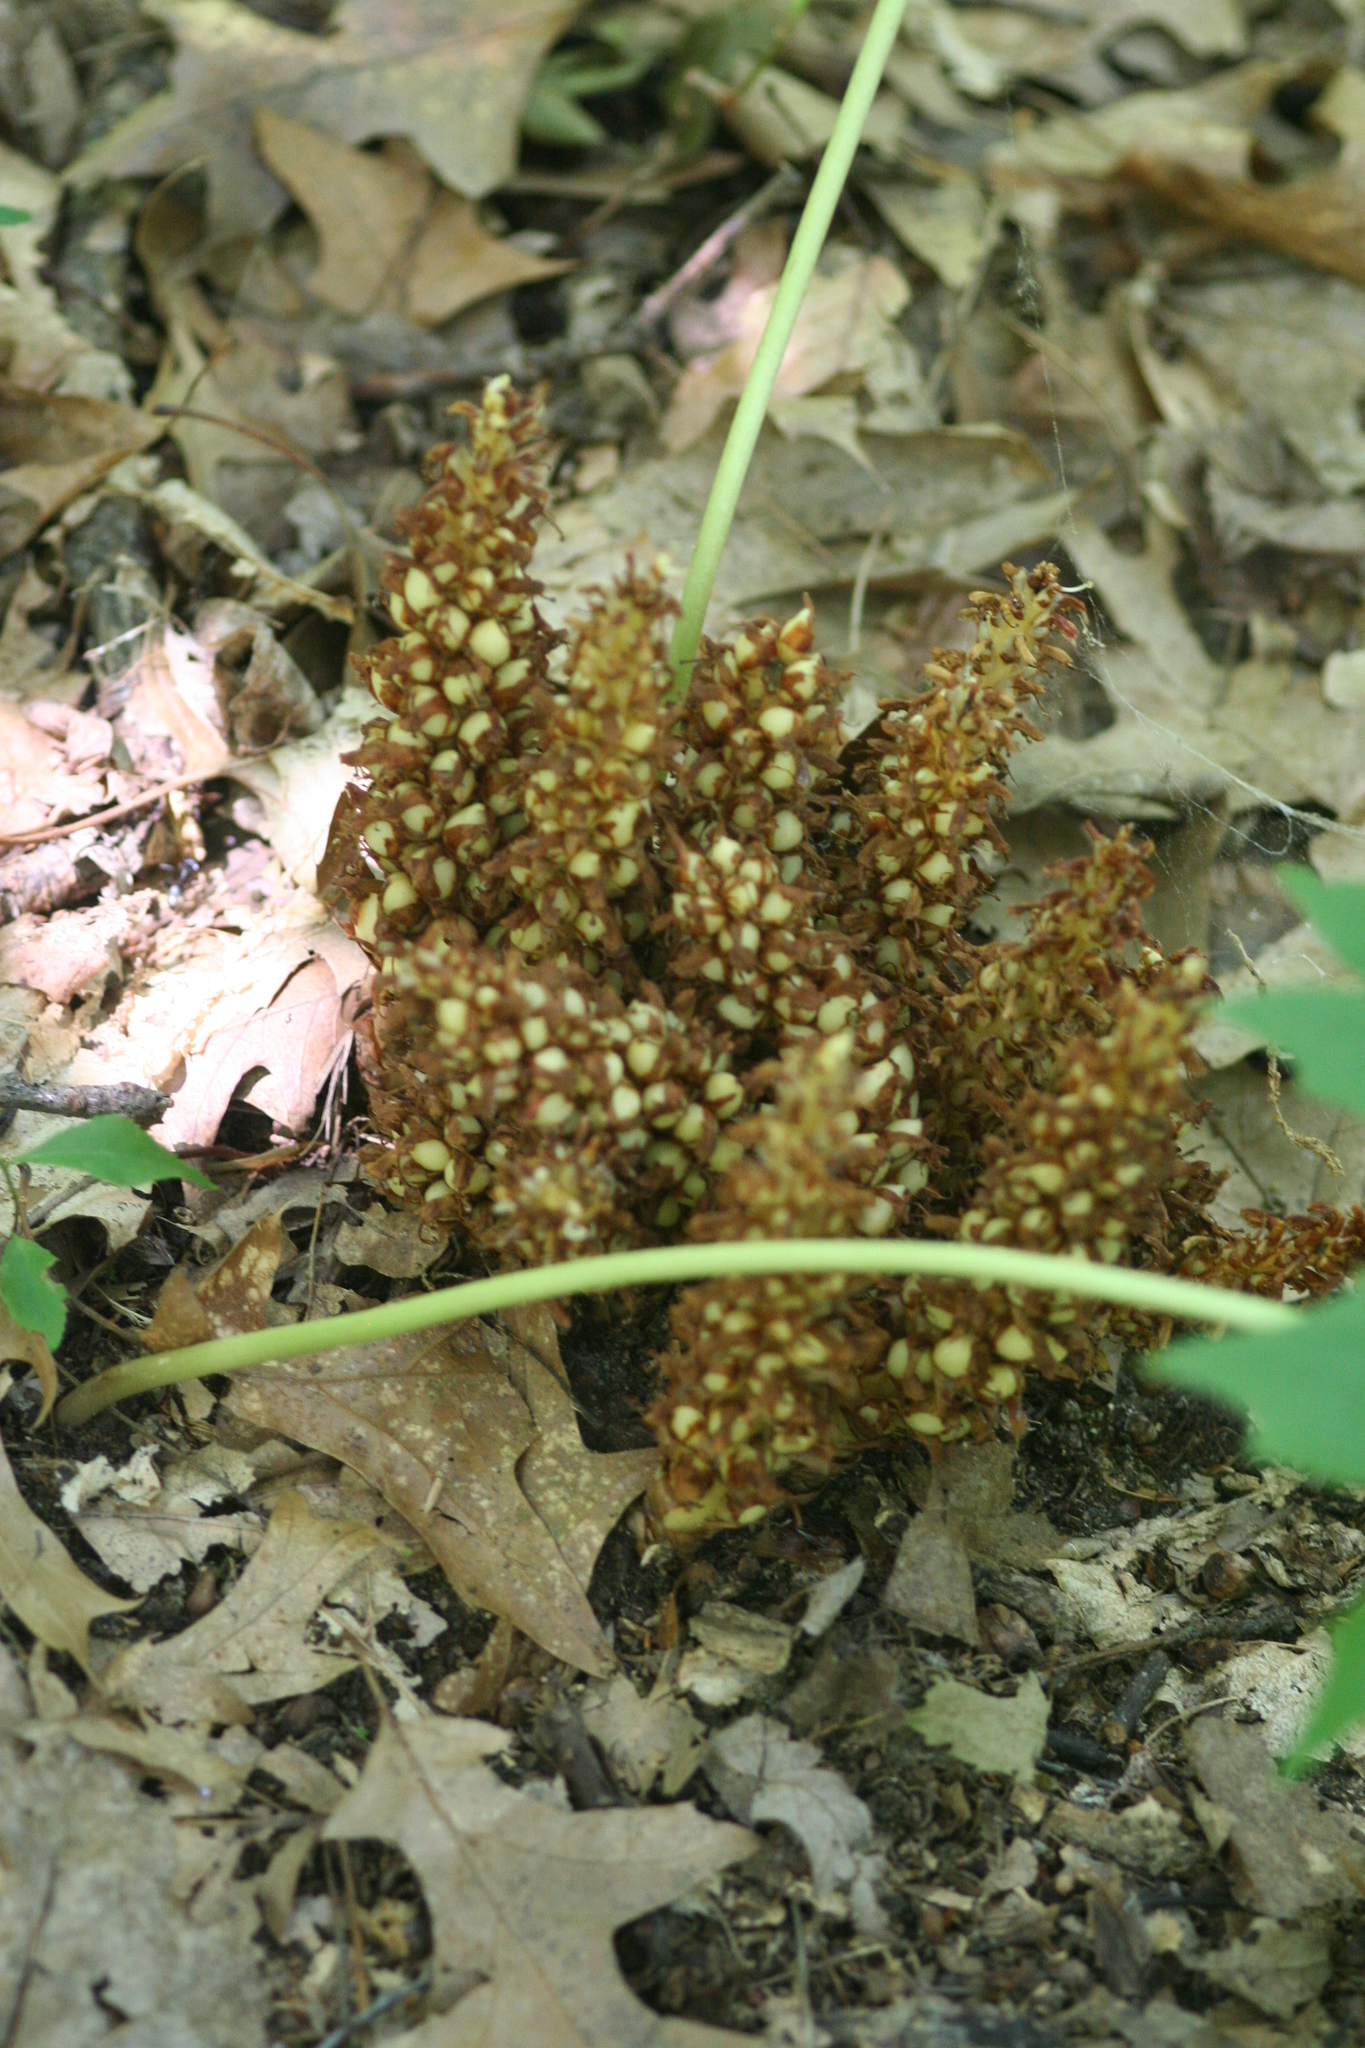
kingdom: Plantae
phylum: Tracheophyta
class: Magnoliopsida
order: Lamiales
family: Orobanchaceae
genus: Conopholis
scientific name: Conopholis americana
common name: American cancer-root
